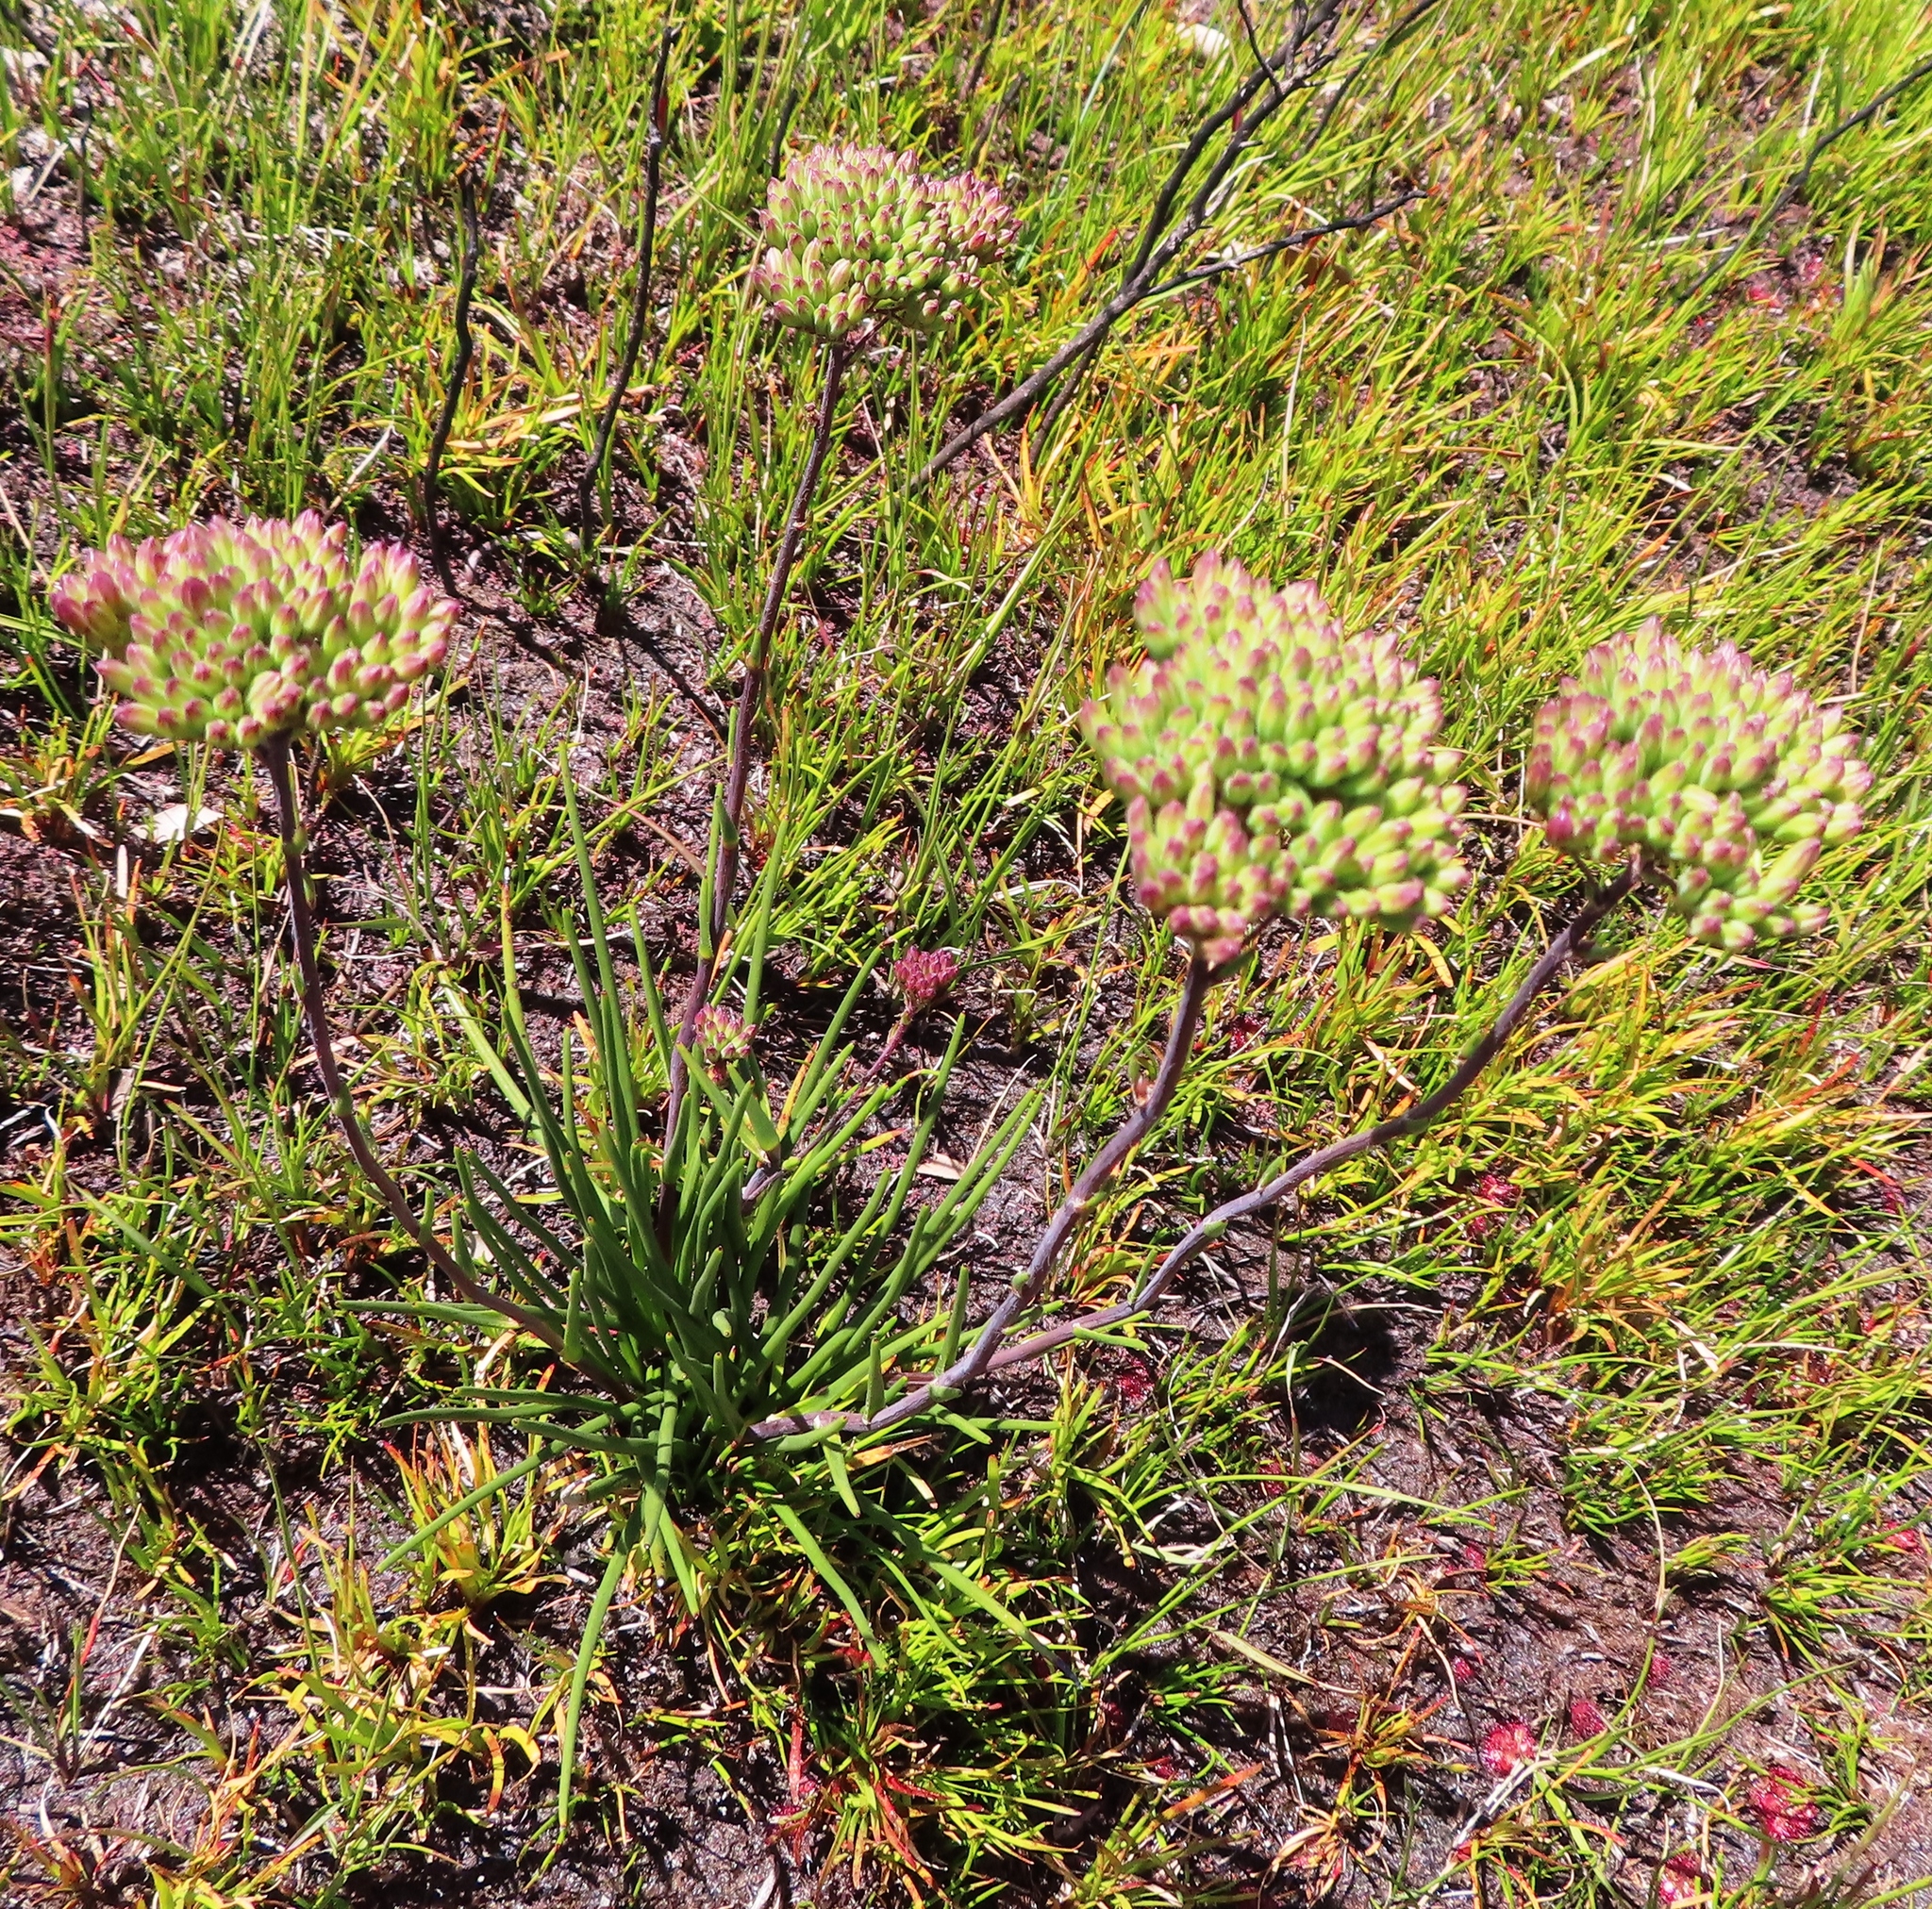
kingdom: Plantae
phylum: Tracheophyta
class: Magnoliopsida
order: Asterales
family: Asteraceae
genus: Corymbium
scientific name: Corymbium glabrum
